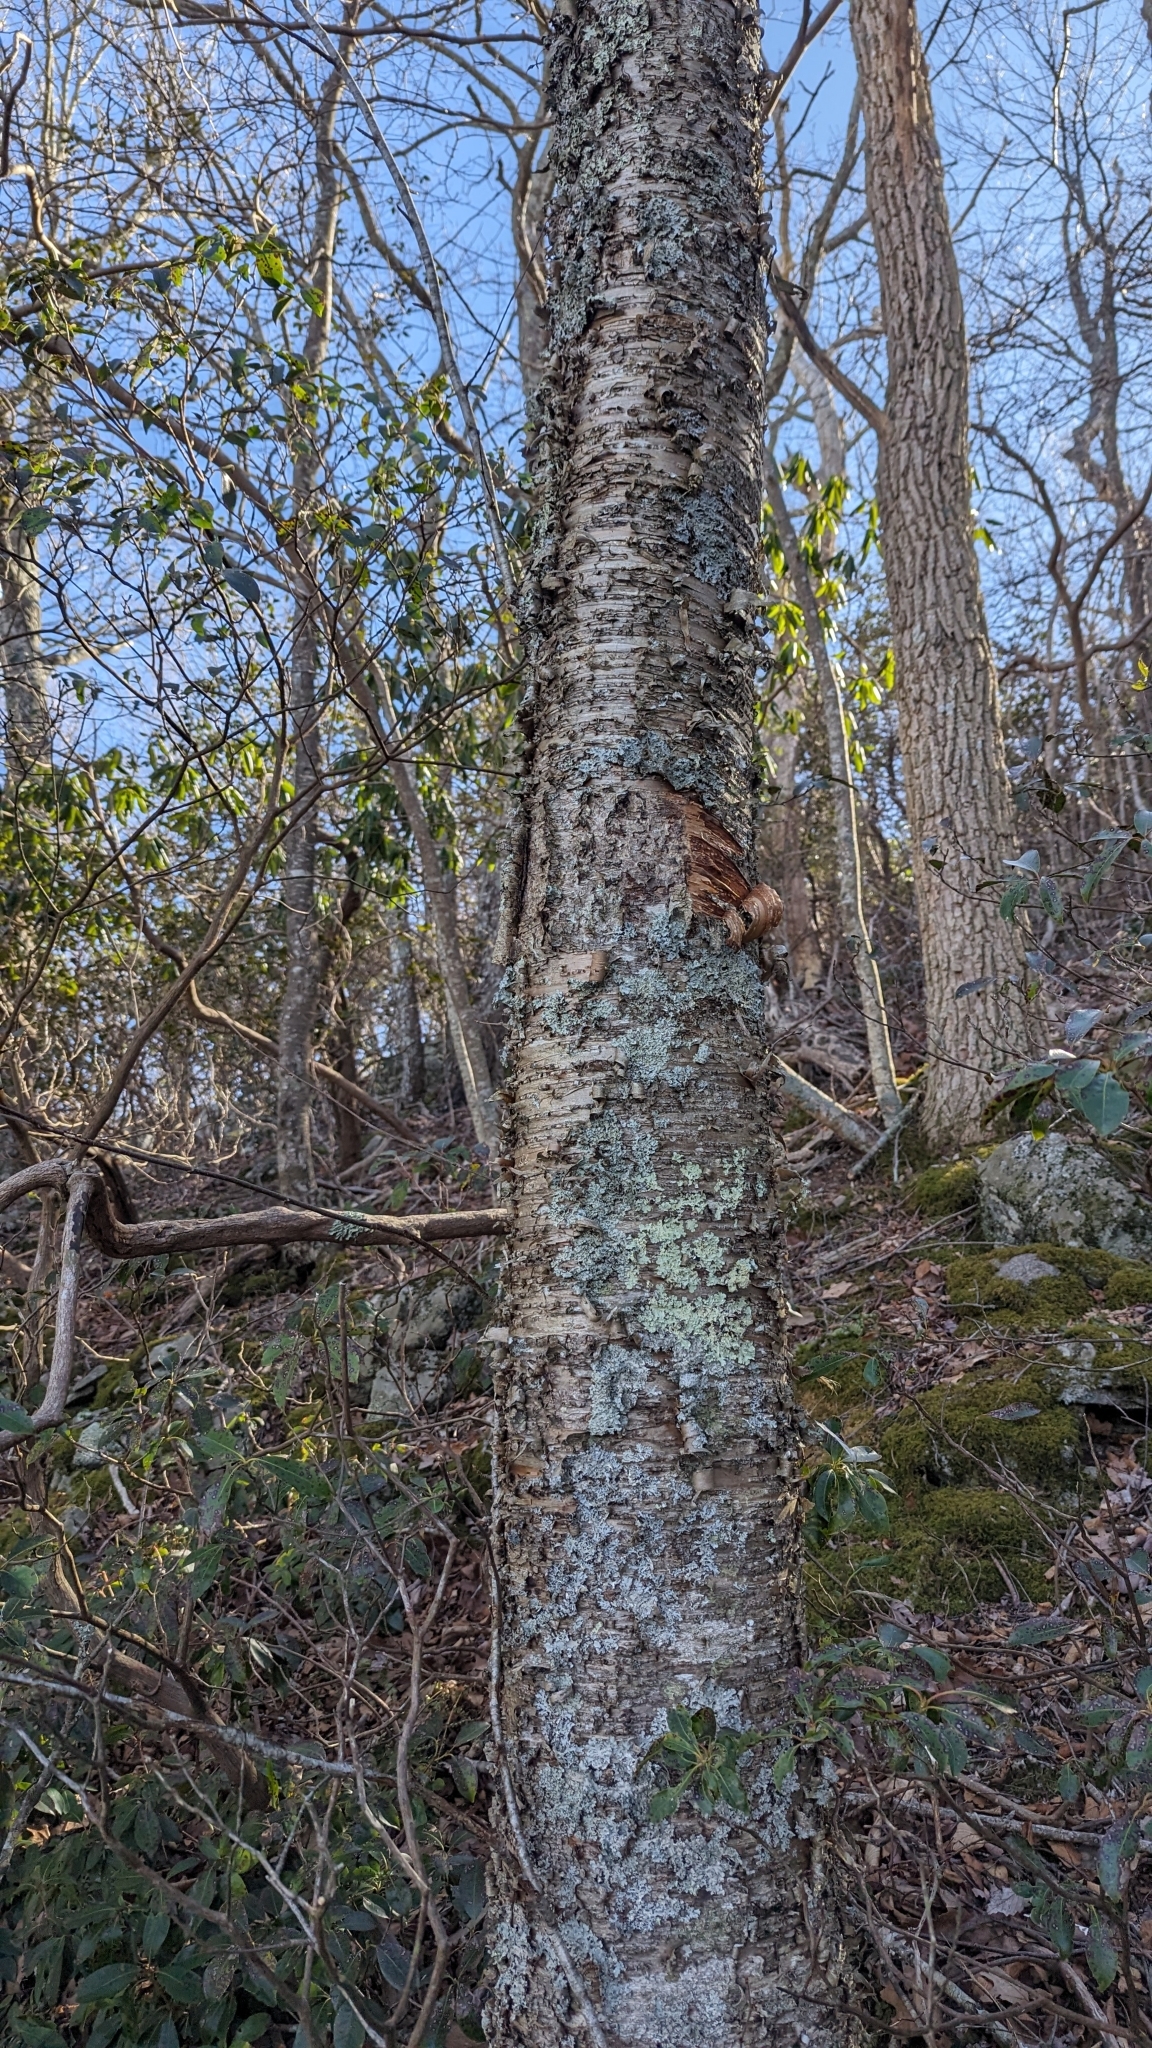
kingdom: Plantae
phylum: Tracheophyta
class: Magnoliopsida
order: Fagales
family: Betulaceae
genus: Betula
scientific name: Betula alleghaniensis
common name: Yellow birch
